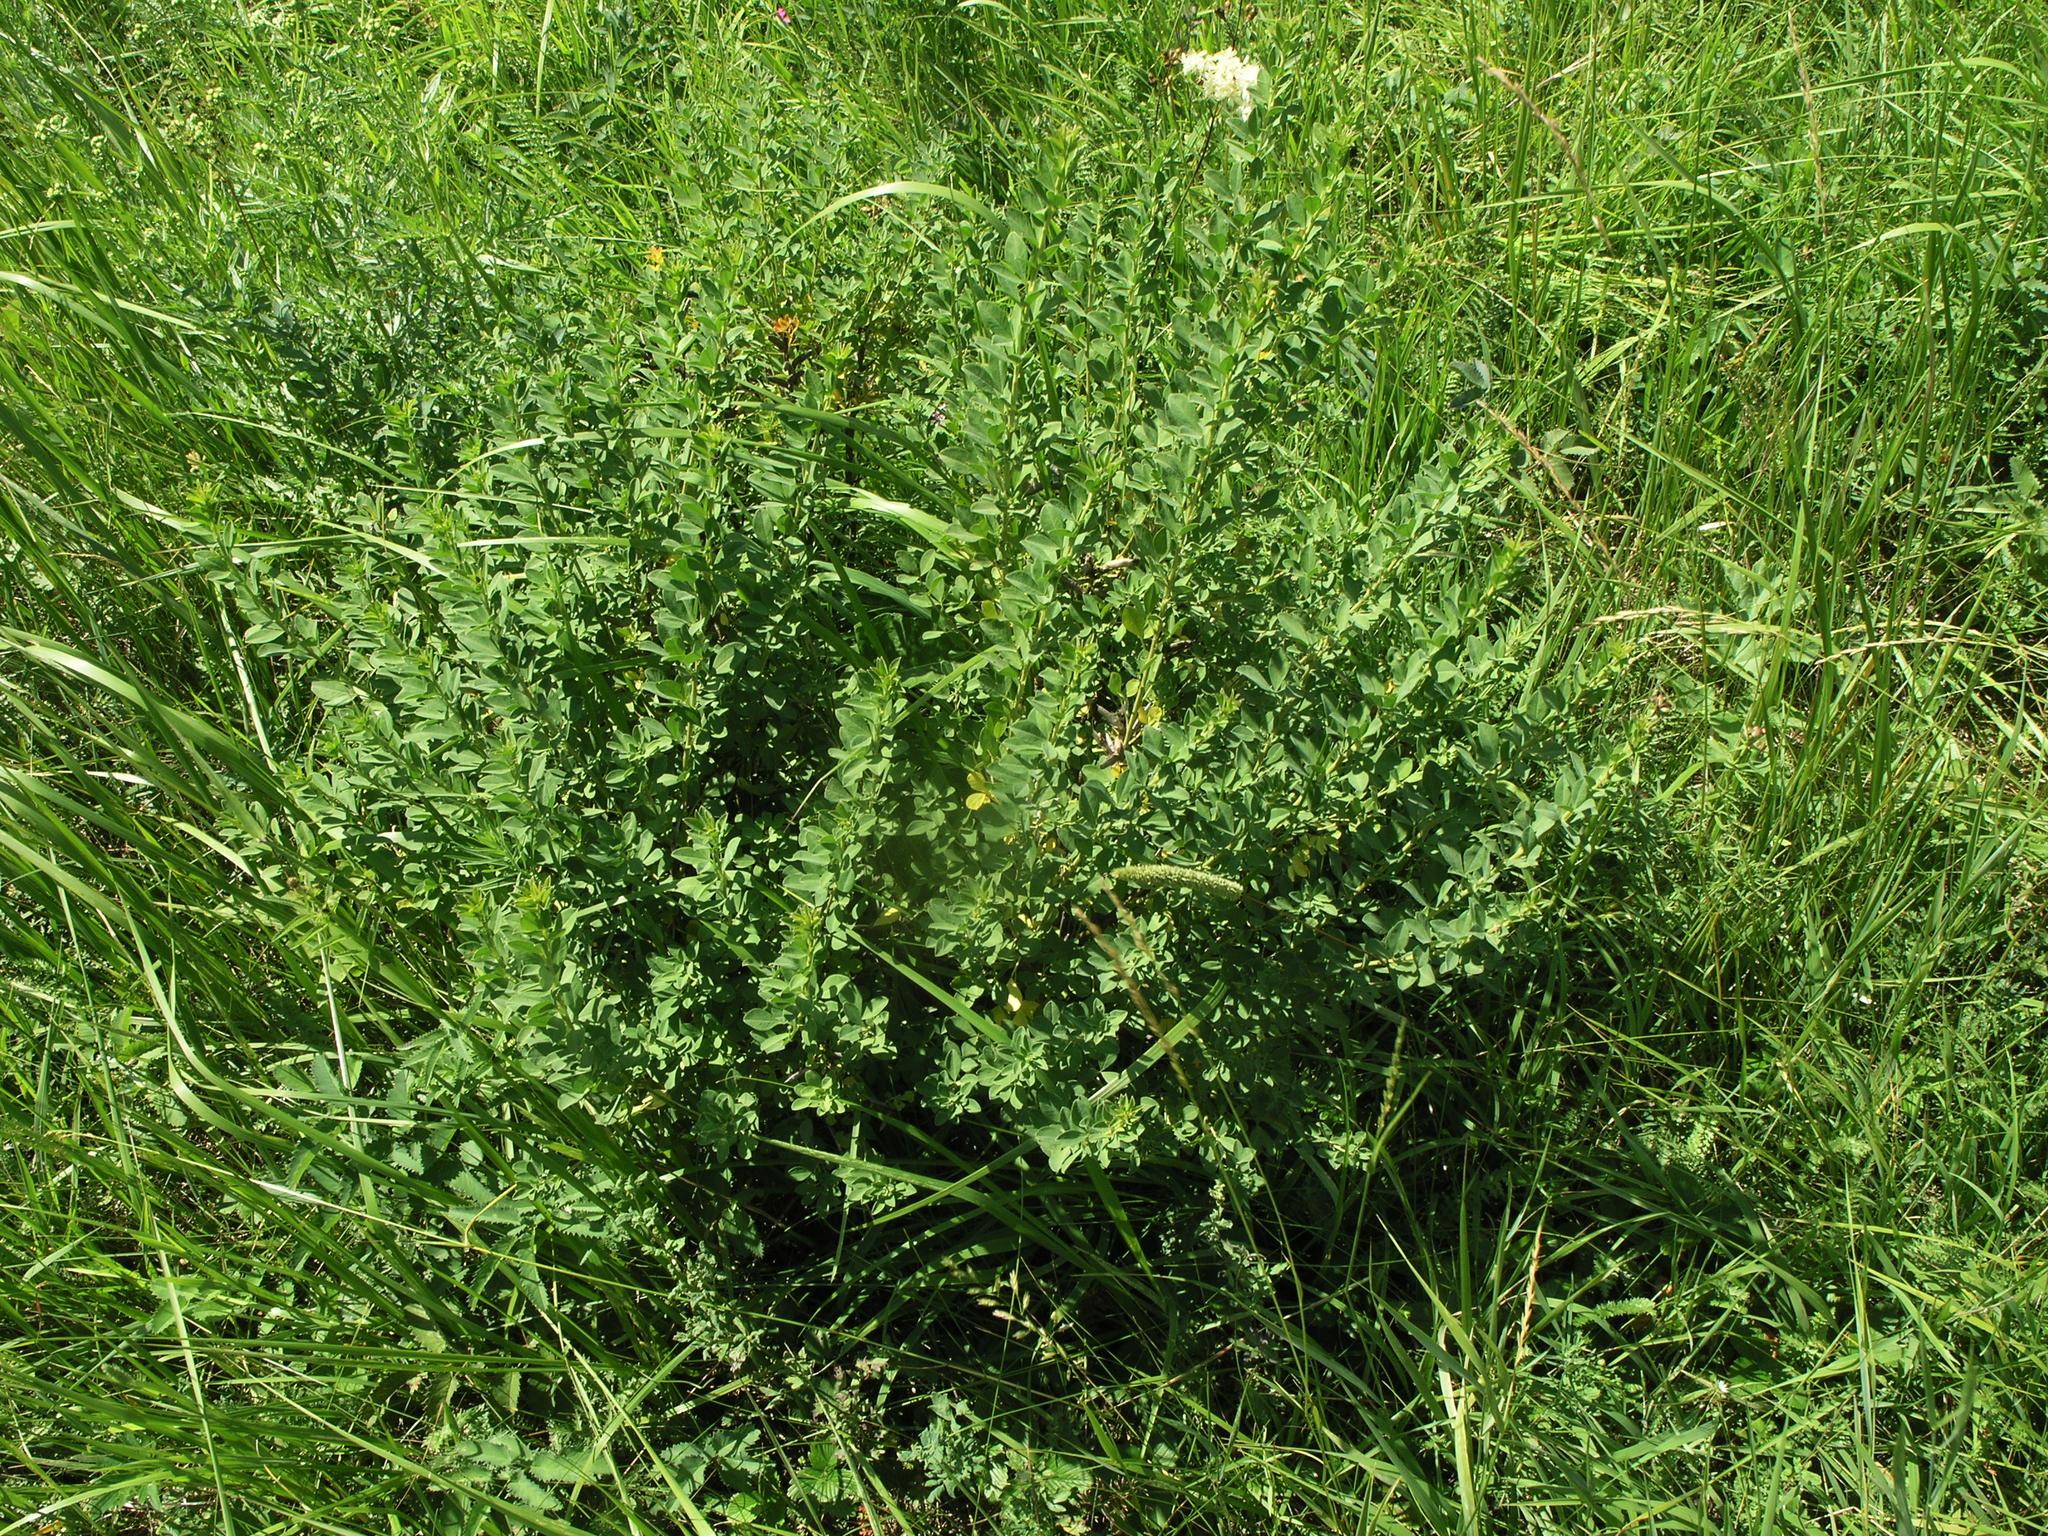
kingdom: Plantae
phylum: Tracheophyta
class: Magnoliopsida
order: Fabales
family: Fabaceae
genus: Chamaecytisus
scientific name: Chamaecytisus ruthenicus
